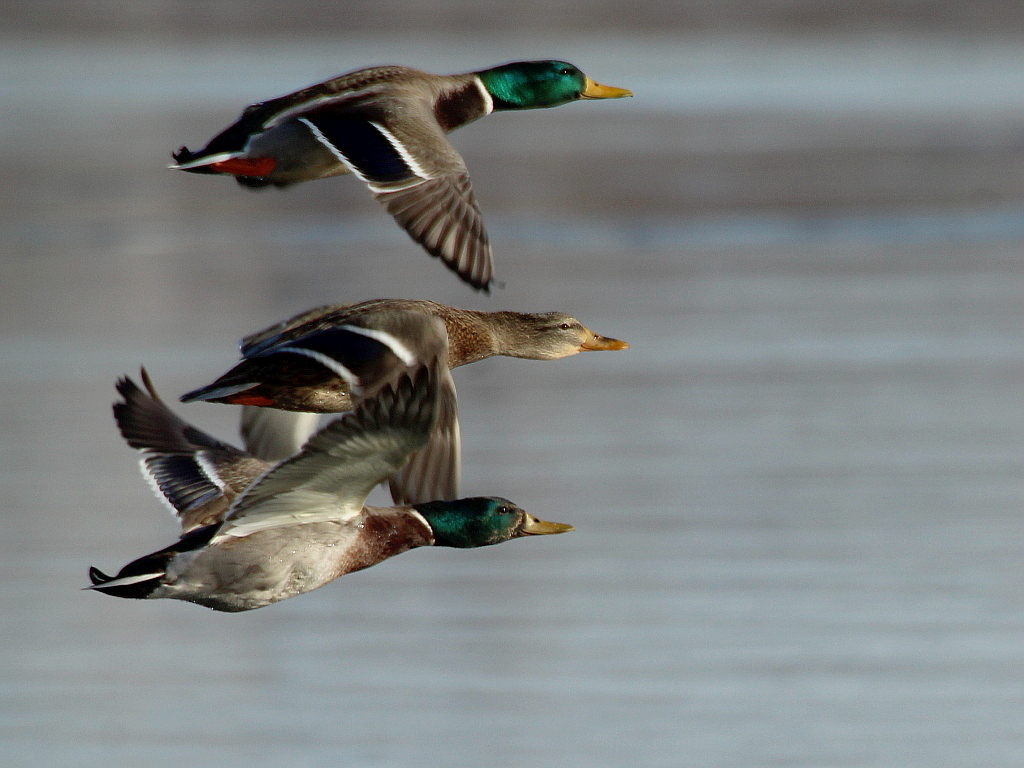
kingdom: Animalia
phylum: Chordata
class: Aves
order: Anseriformes
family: Anatidae
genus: Anas
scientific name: Anas platyrhynchos
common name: Mallard
